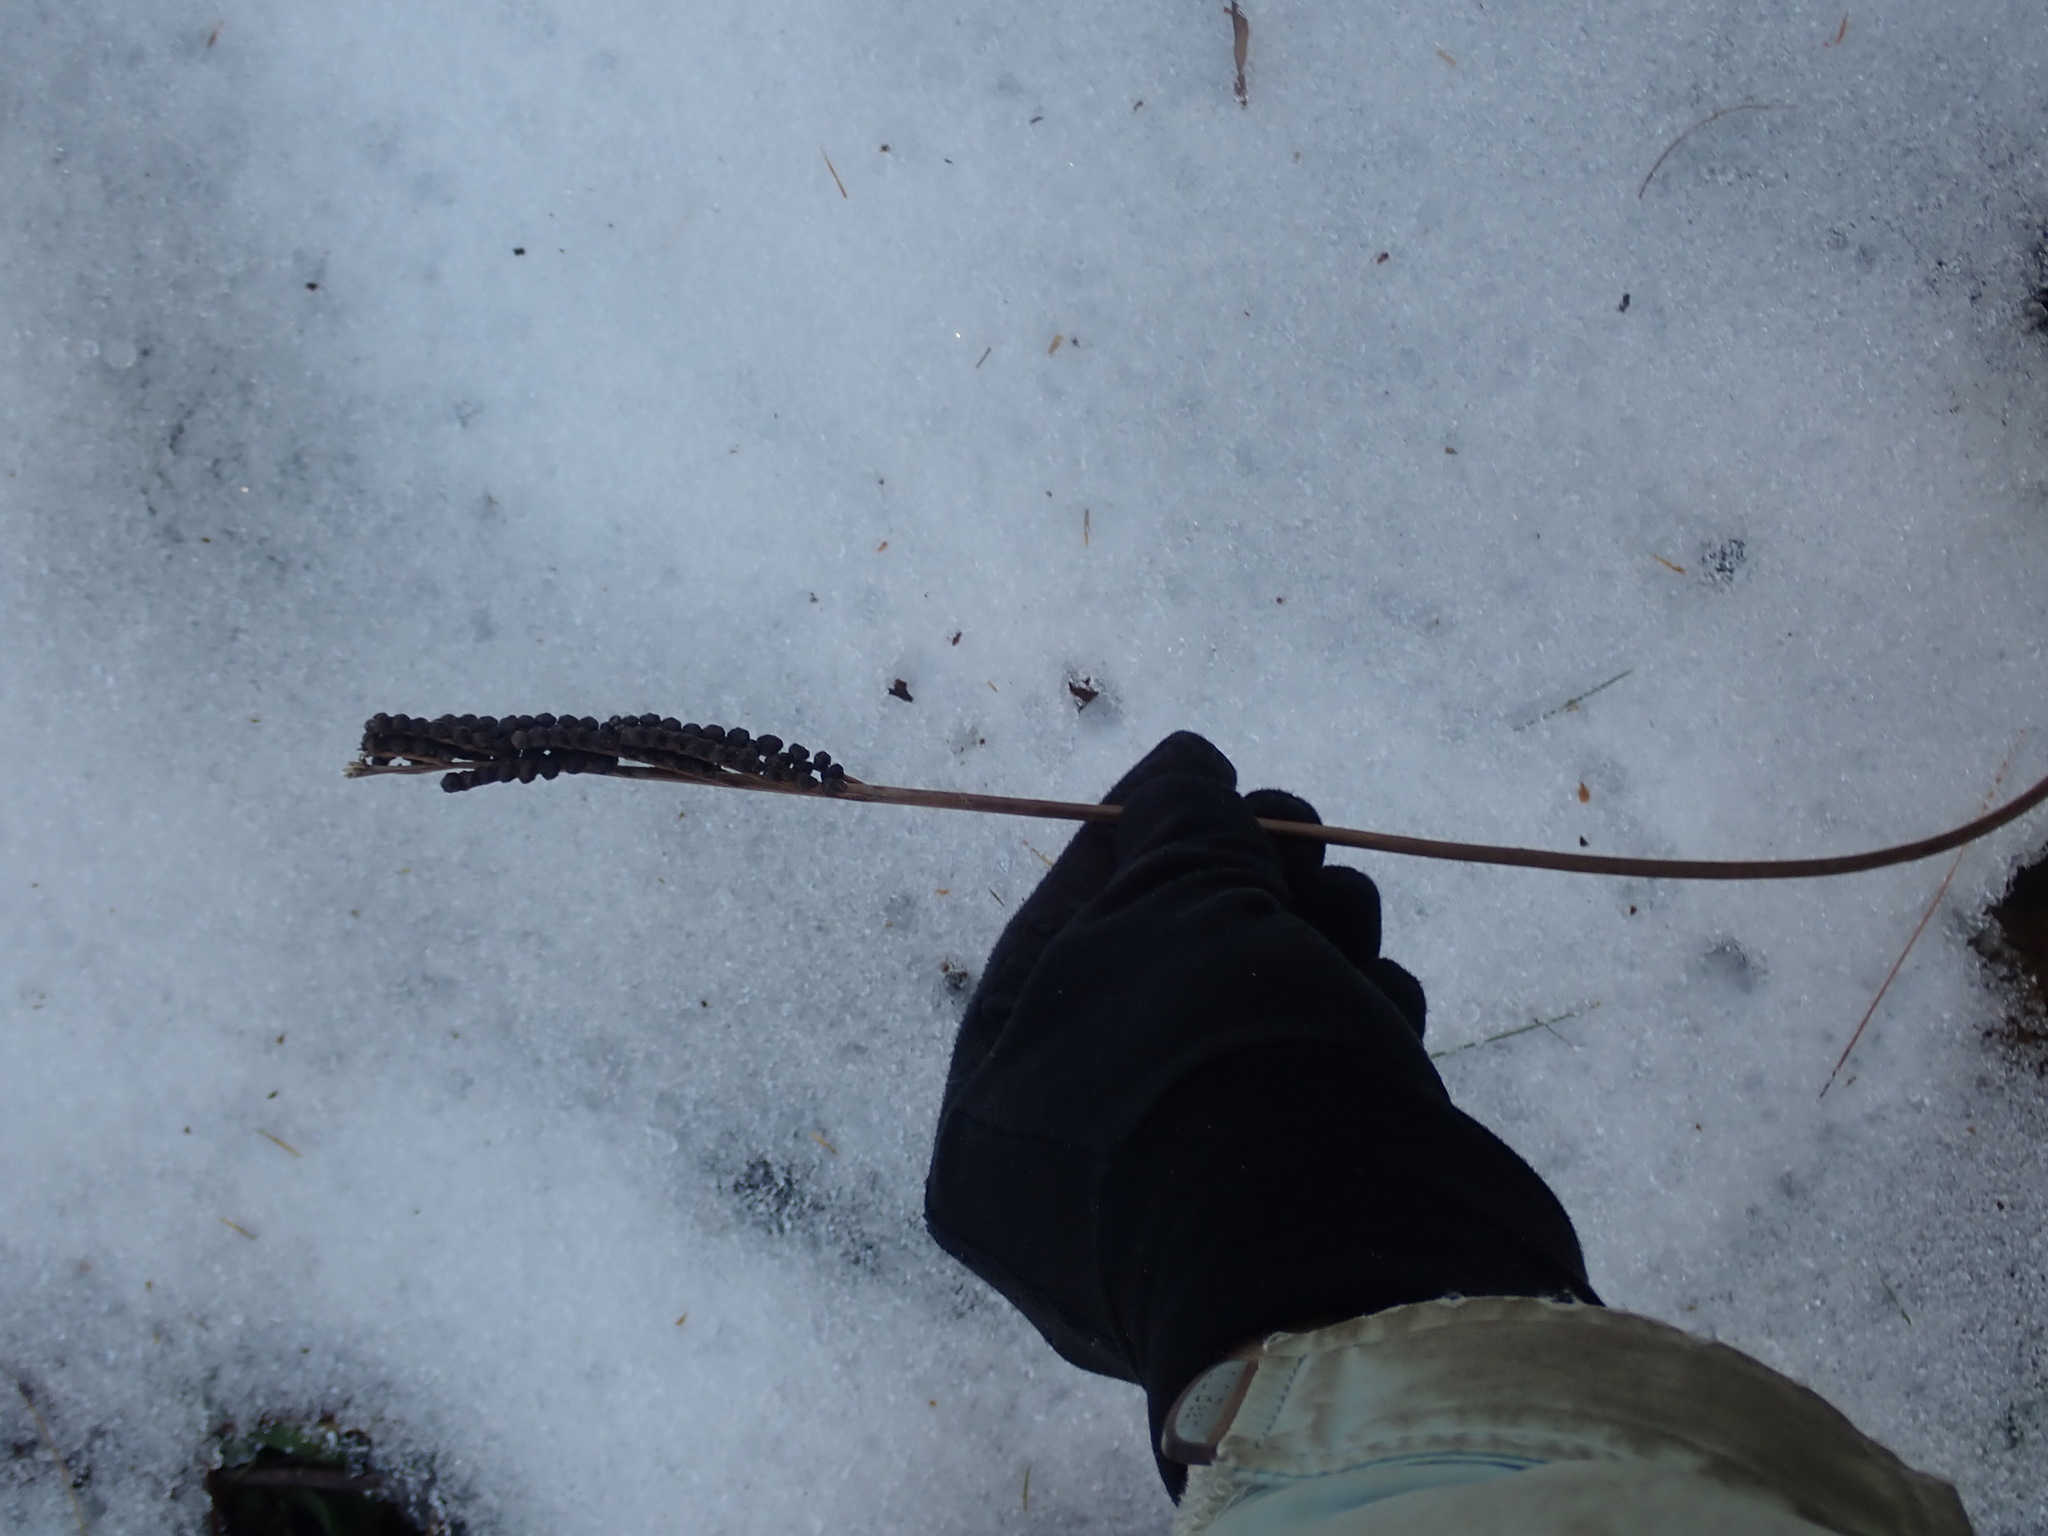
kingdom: Plantae
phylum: Tracheophyta
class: Polypodiopsida
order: Polypodiales
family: Onocleaceae
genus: Onoclea
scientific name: Onoclea sensibilis
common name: Sensitive fern
